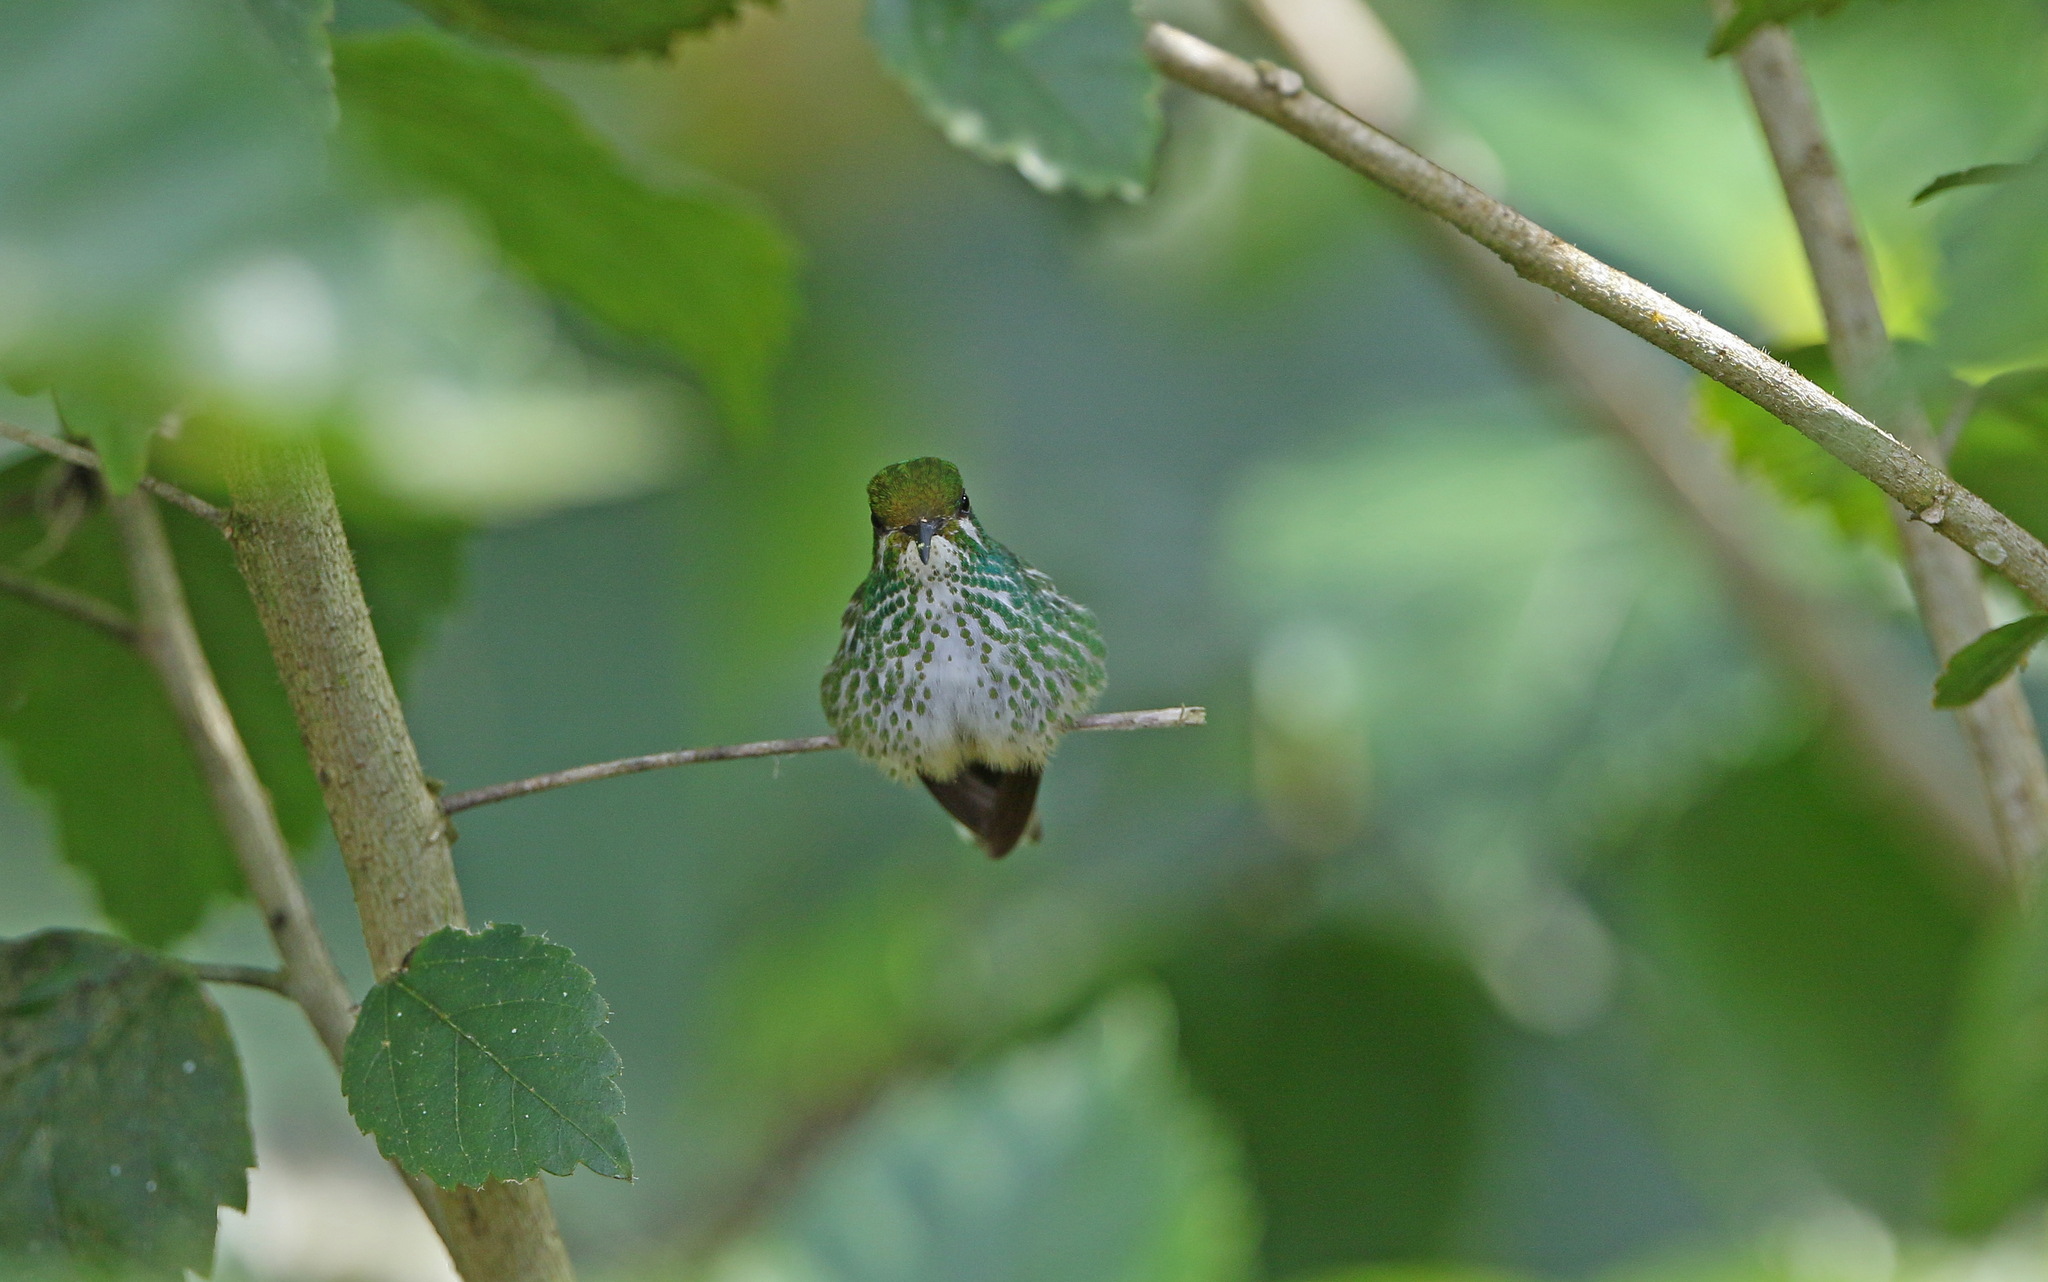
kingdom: Animalia
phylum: Chordata
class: Aves
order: Apodiformes
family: Trochilidae
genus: Taphrospilus
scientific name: Taphrospilus hypostictus
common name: Many-spotted hummingbird
